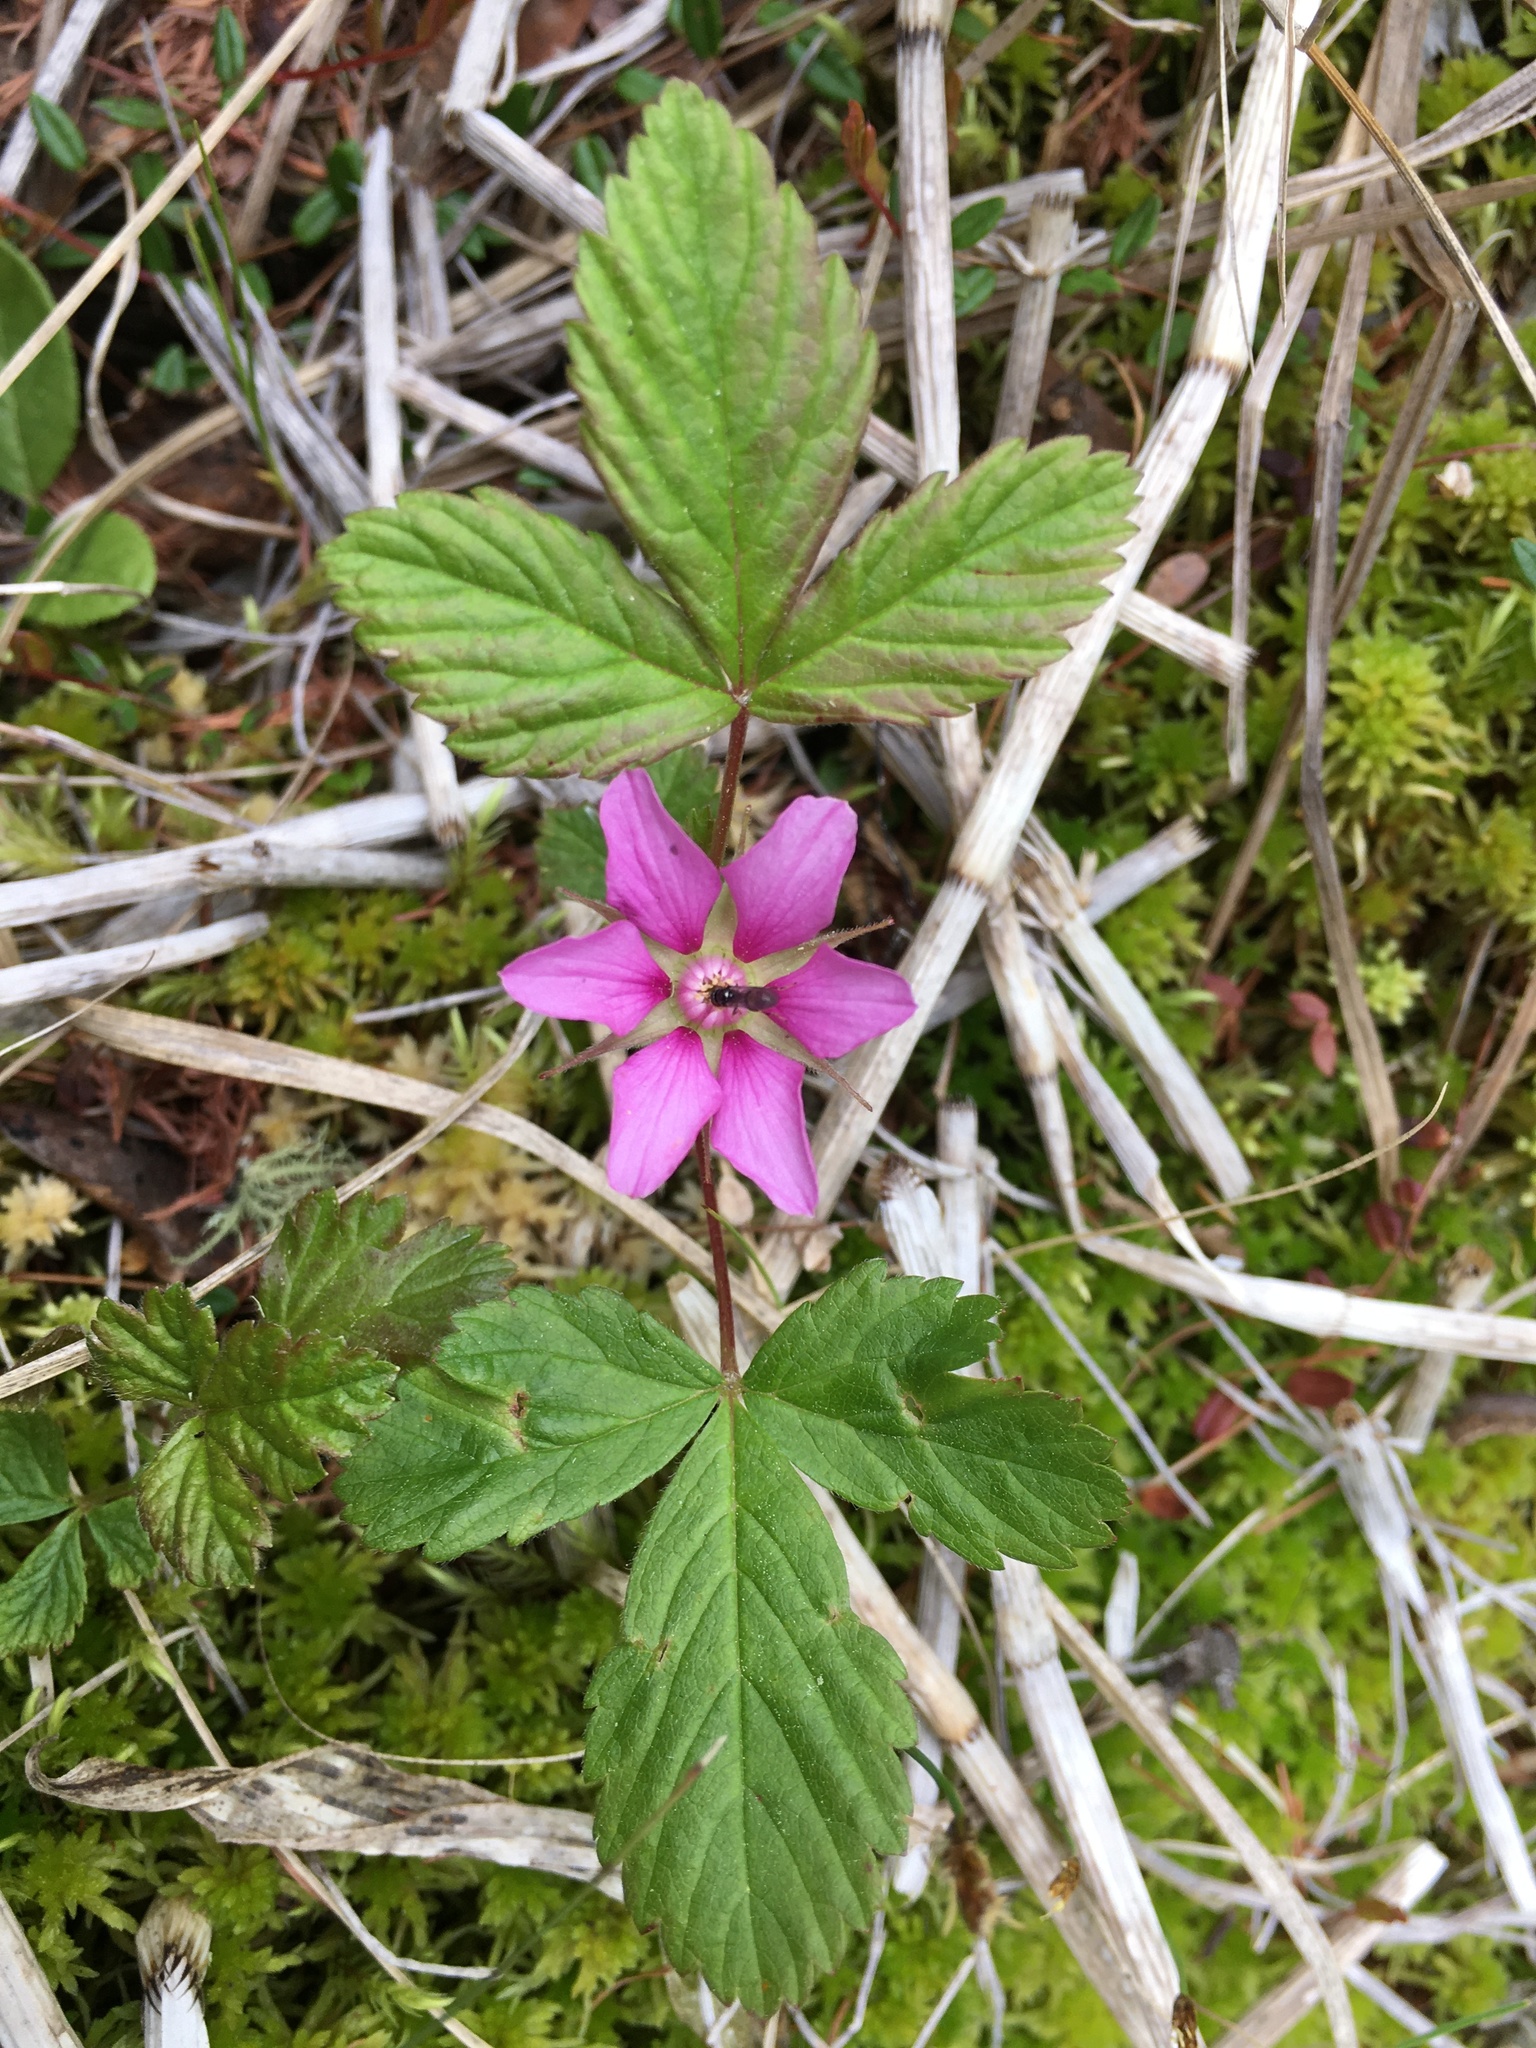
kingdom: Plantae
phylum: Tracheophyta
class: Magnoliopsida
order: Rosales
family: Rosaceae
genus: Rubus
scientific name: Rubus arcticus
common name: Arctic bramble
